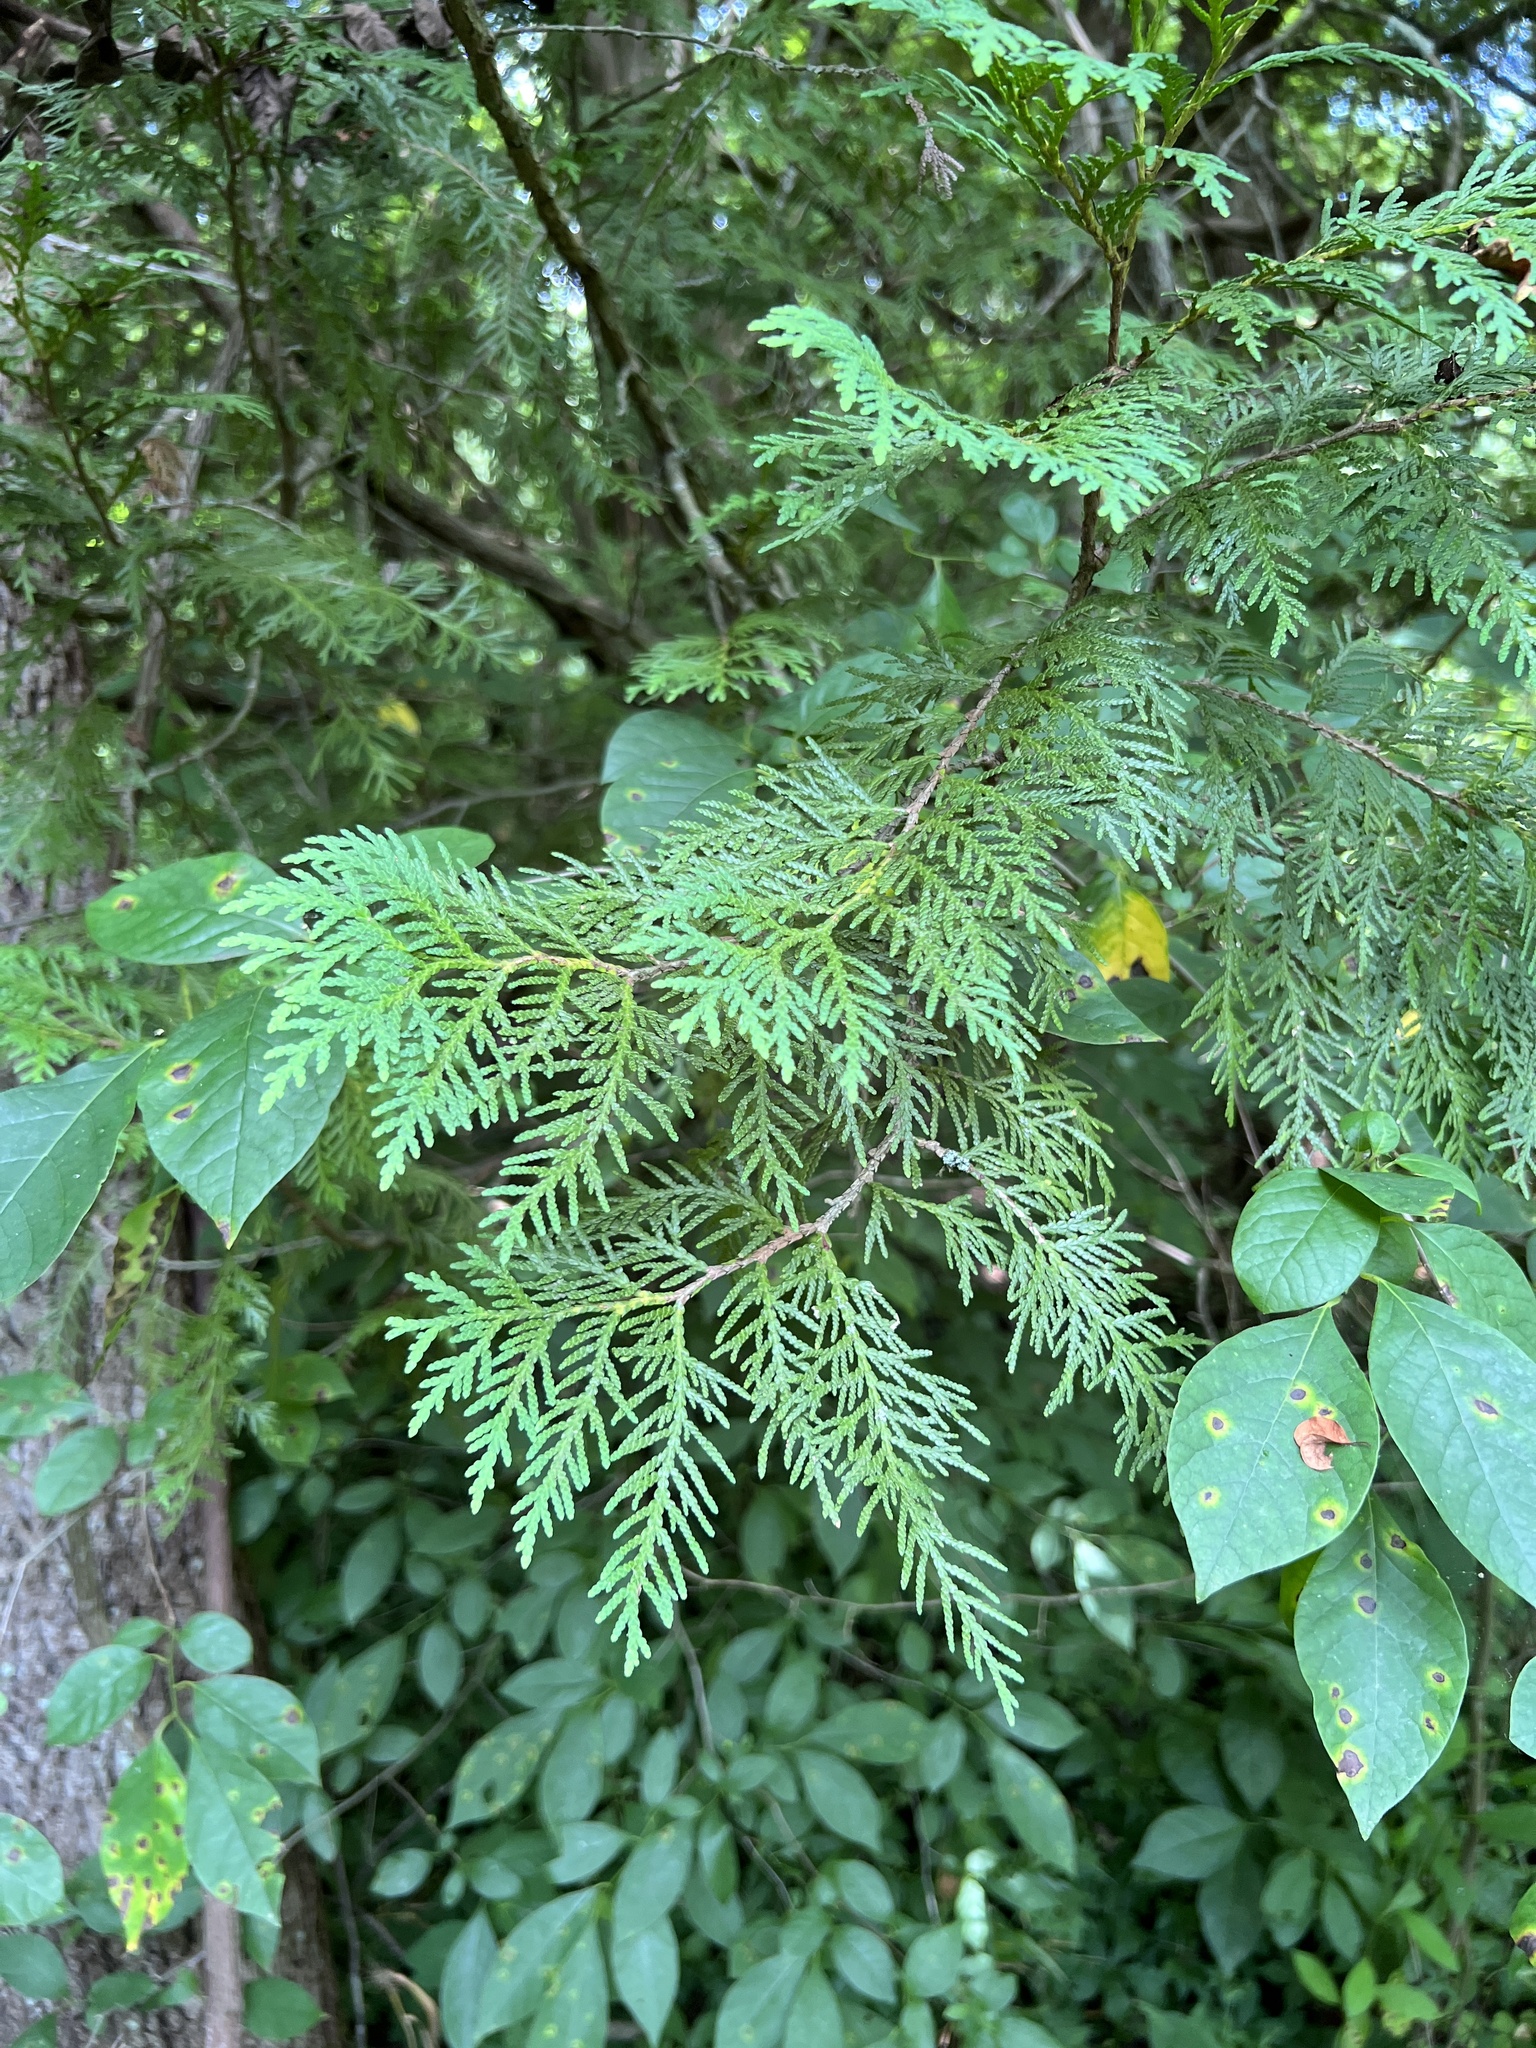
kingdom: Plantae
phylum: Tracheophyta
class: Pinopsida
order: Pinales
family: Cupressaceae
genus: Thuja
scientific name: Thuja occidentalis
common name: Northern white-cedar
